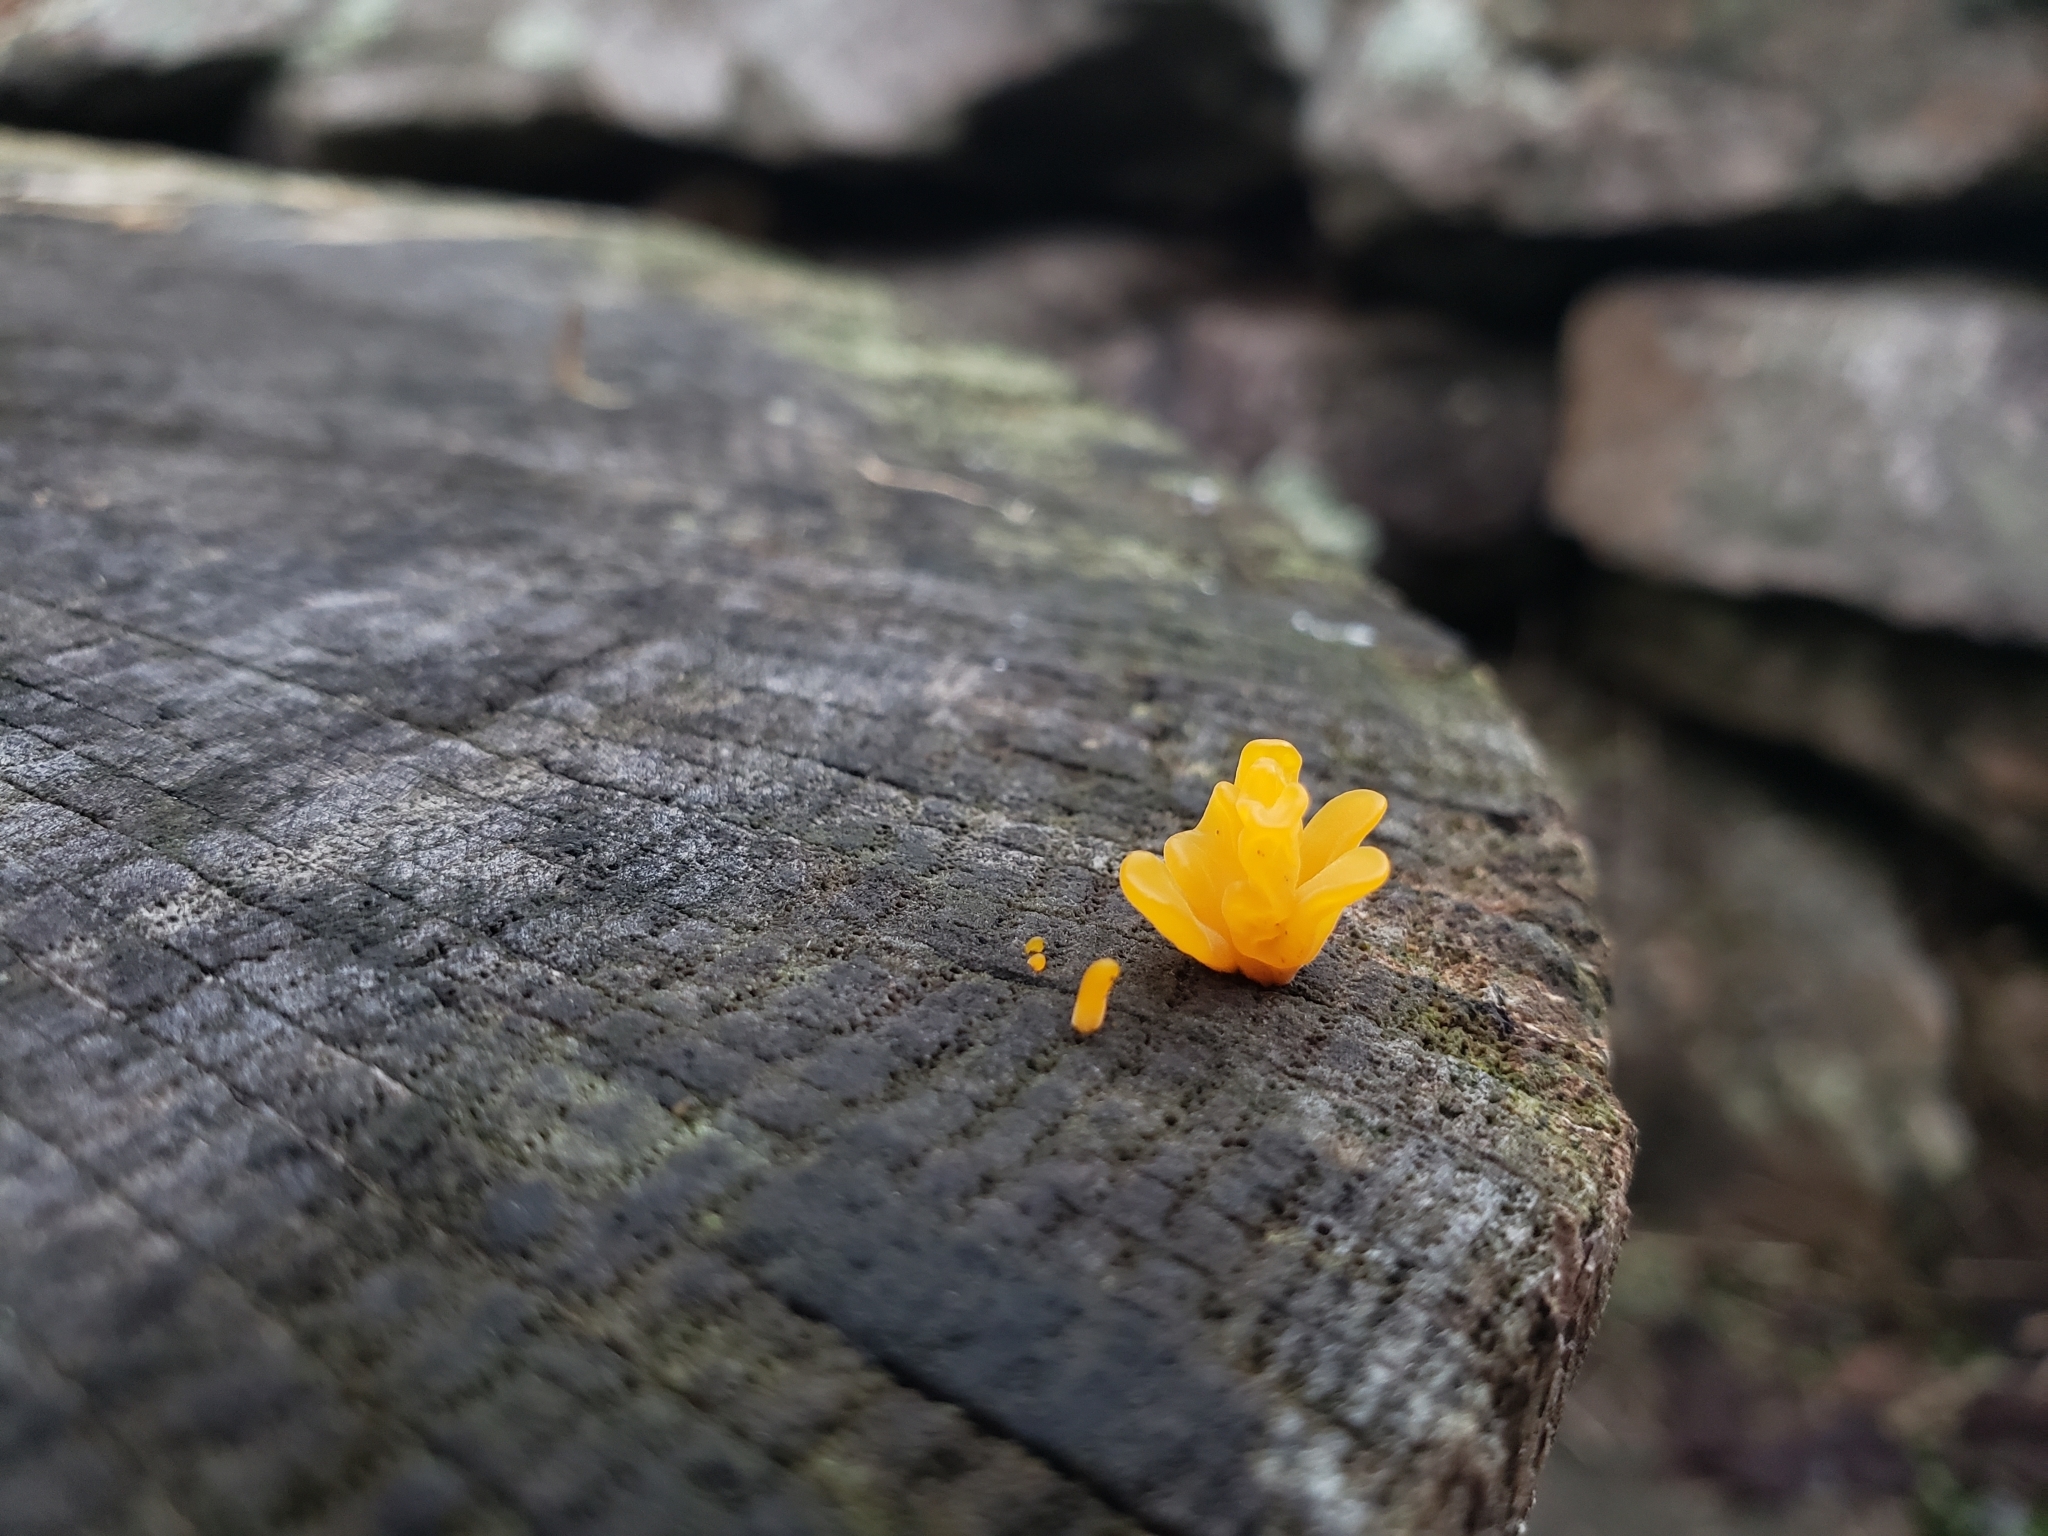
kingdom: Fungi
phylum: Basidiomycota
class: Dacrymycetes
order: Dacrymycetales
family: Dacrymycetaceae
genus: Dacrymyces
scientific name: Dacrymyces spathularius
